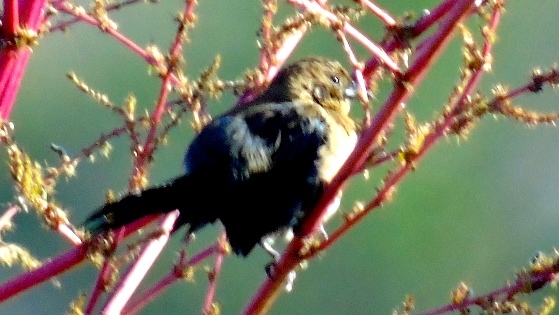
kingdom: Animalia
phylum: Chordata
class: Aves
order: Passeriformes
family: Thraupidae
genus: Volatinia
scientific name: Volatinia jacarina
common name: Blue-black grassquit
